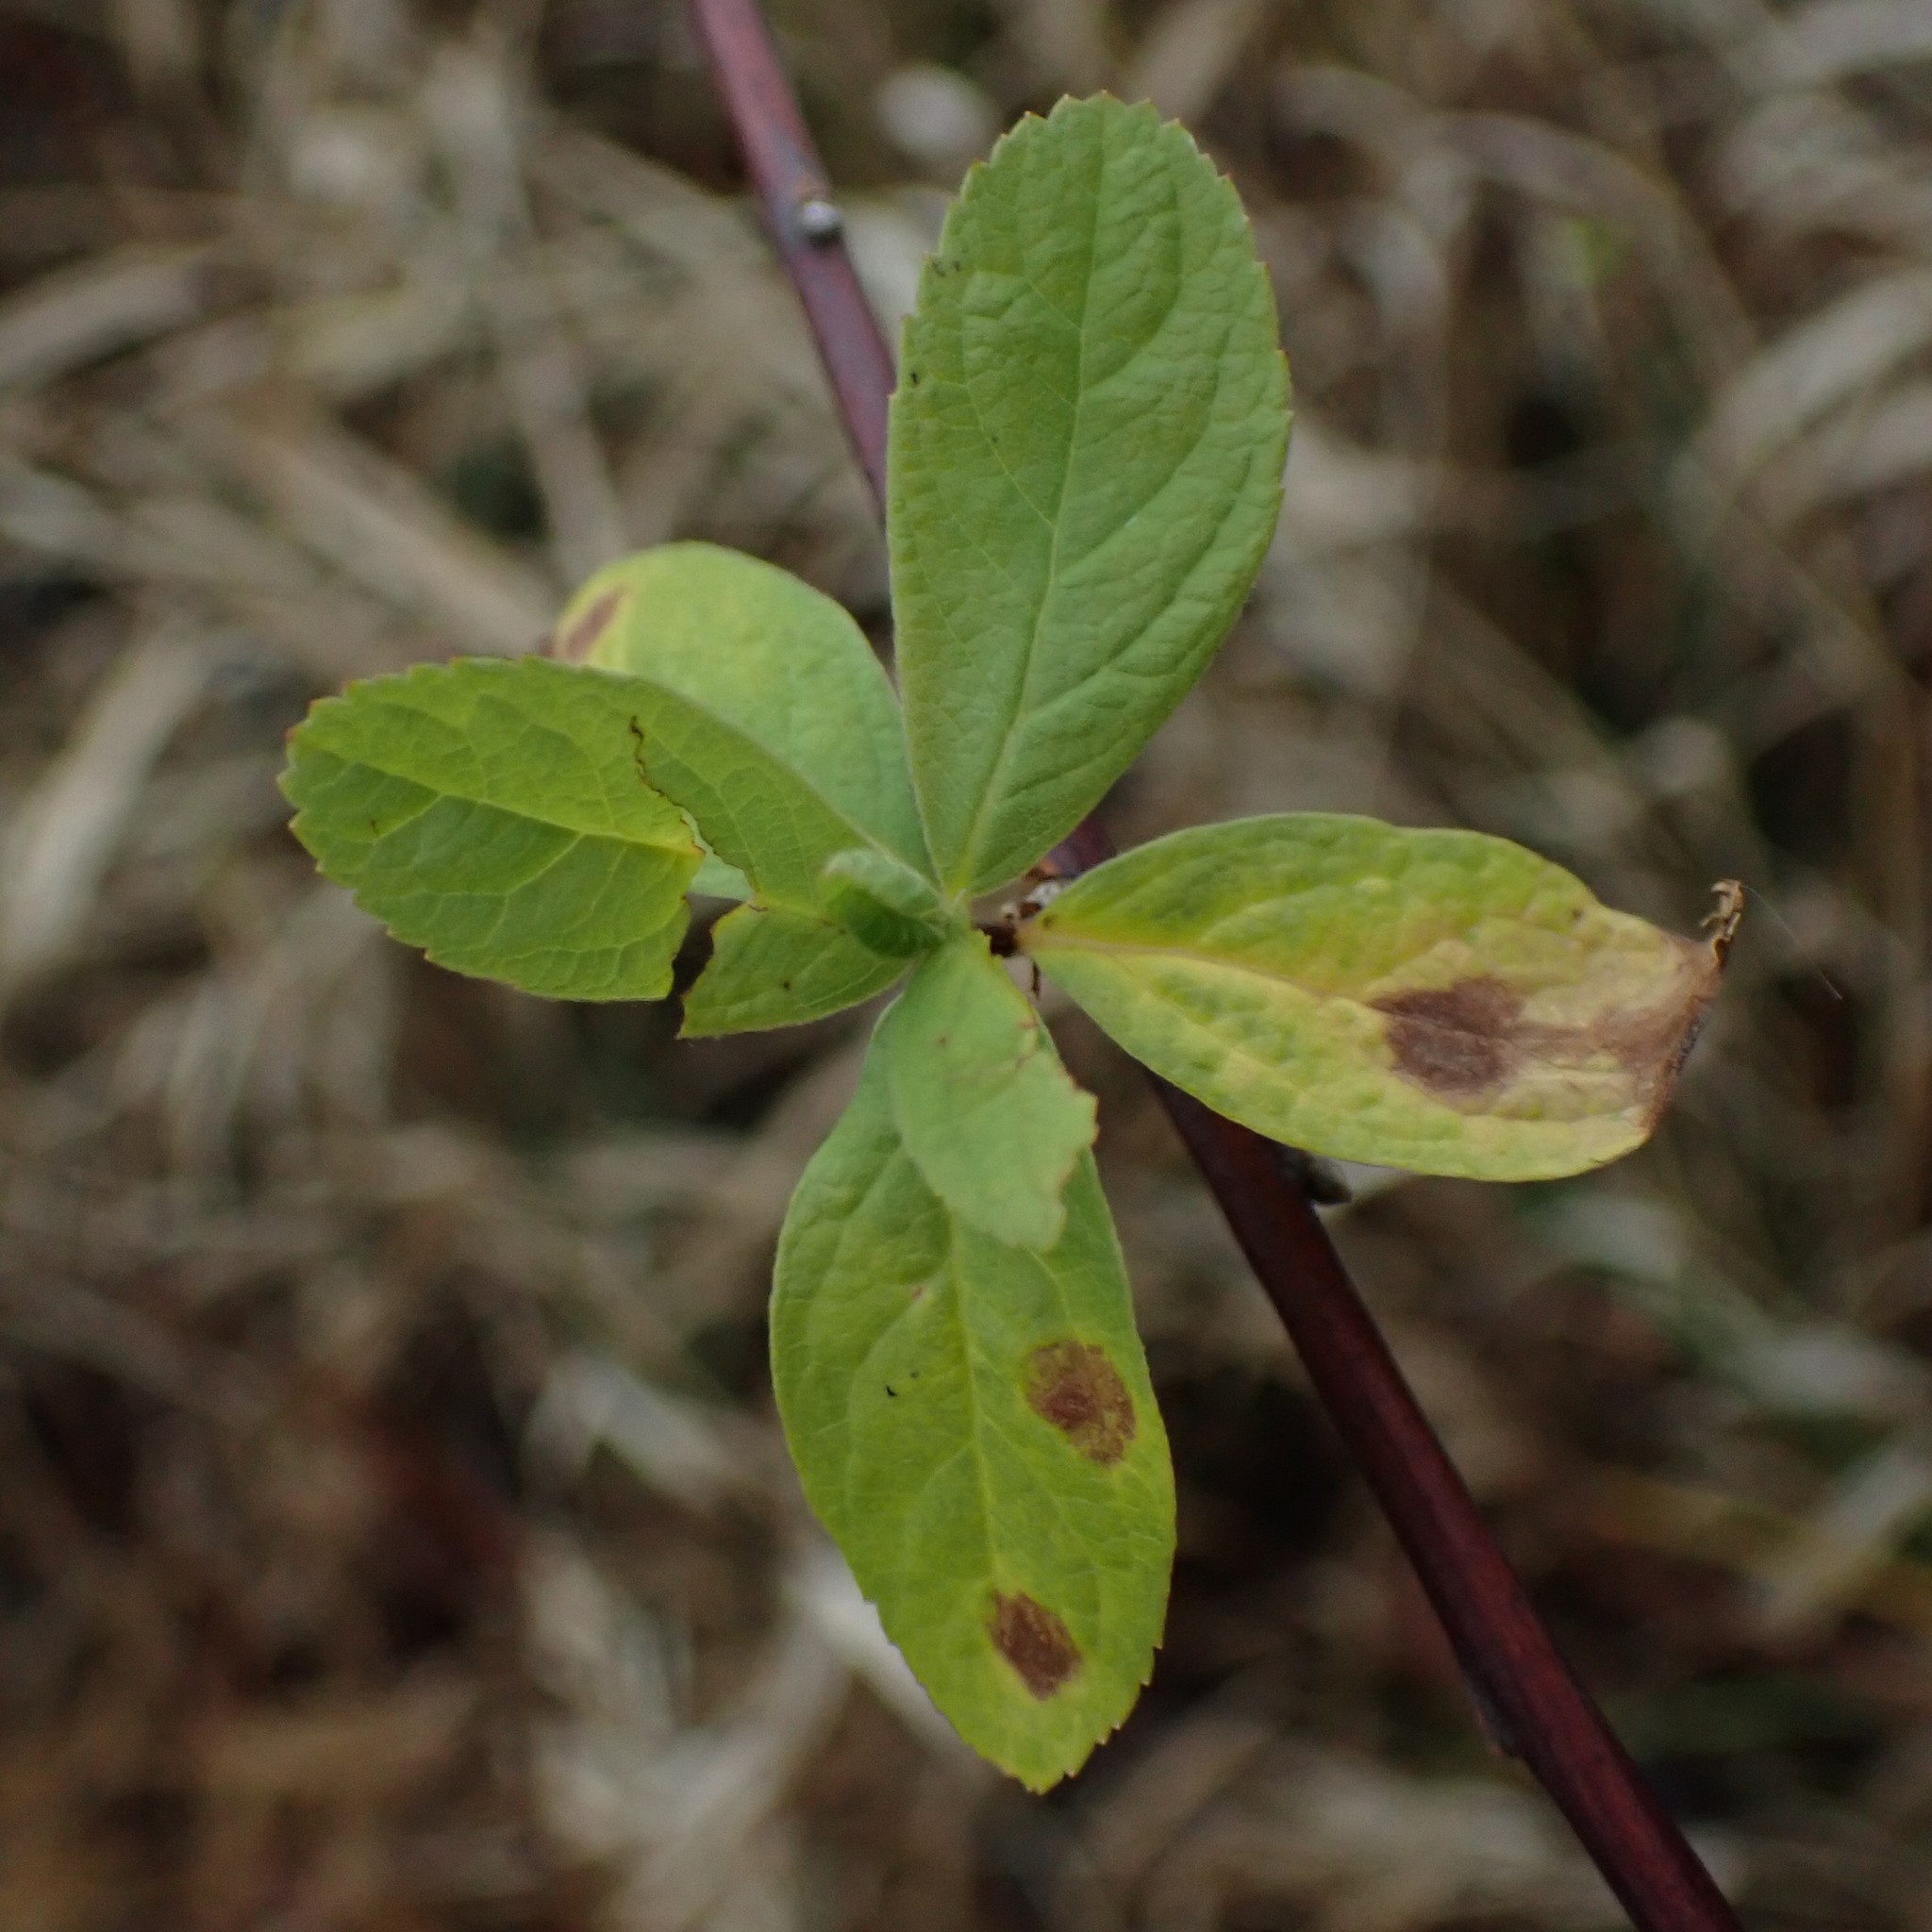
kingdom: Plantae
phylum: Tracheophyta
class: Magnoliopsida
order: Rosales
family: Rosaceae
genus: Spiraea
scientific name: Spiraea douglasii
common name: Steeplebush
